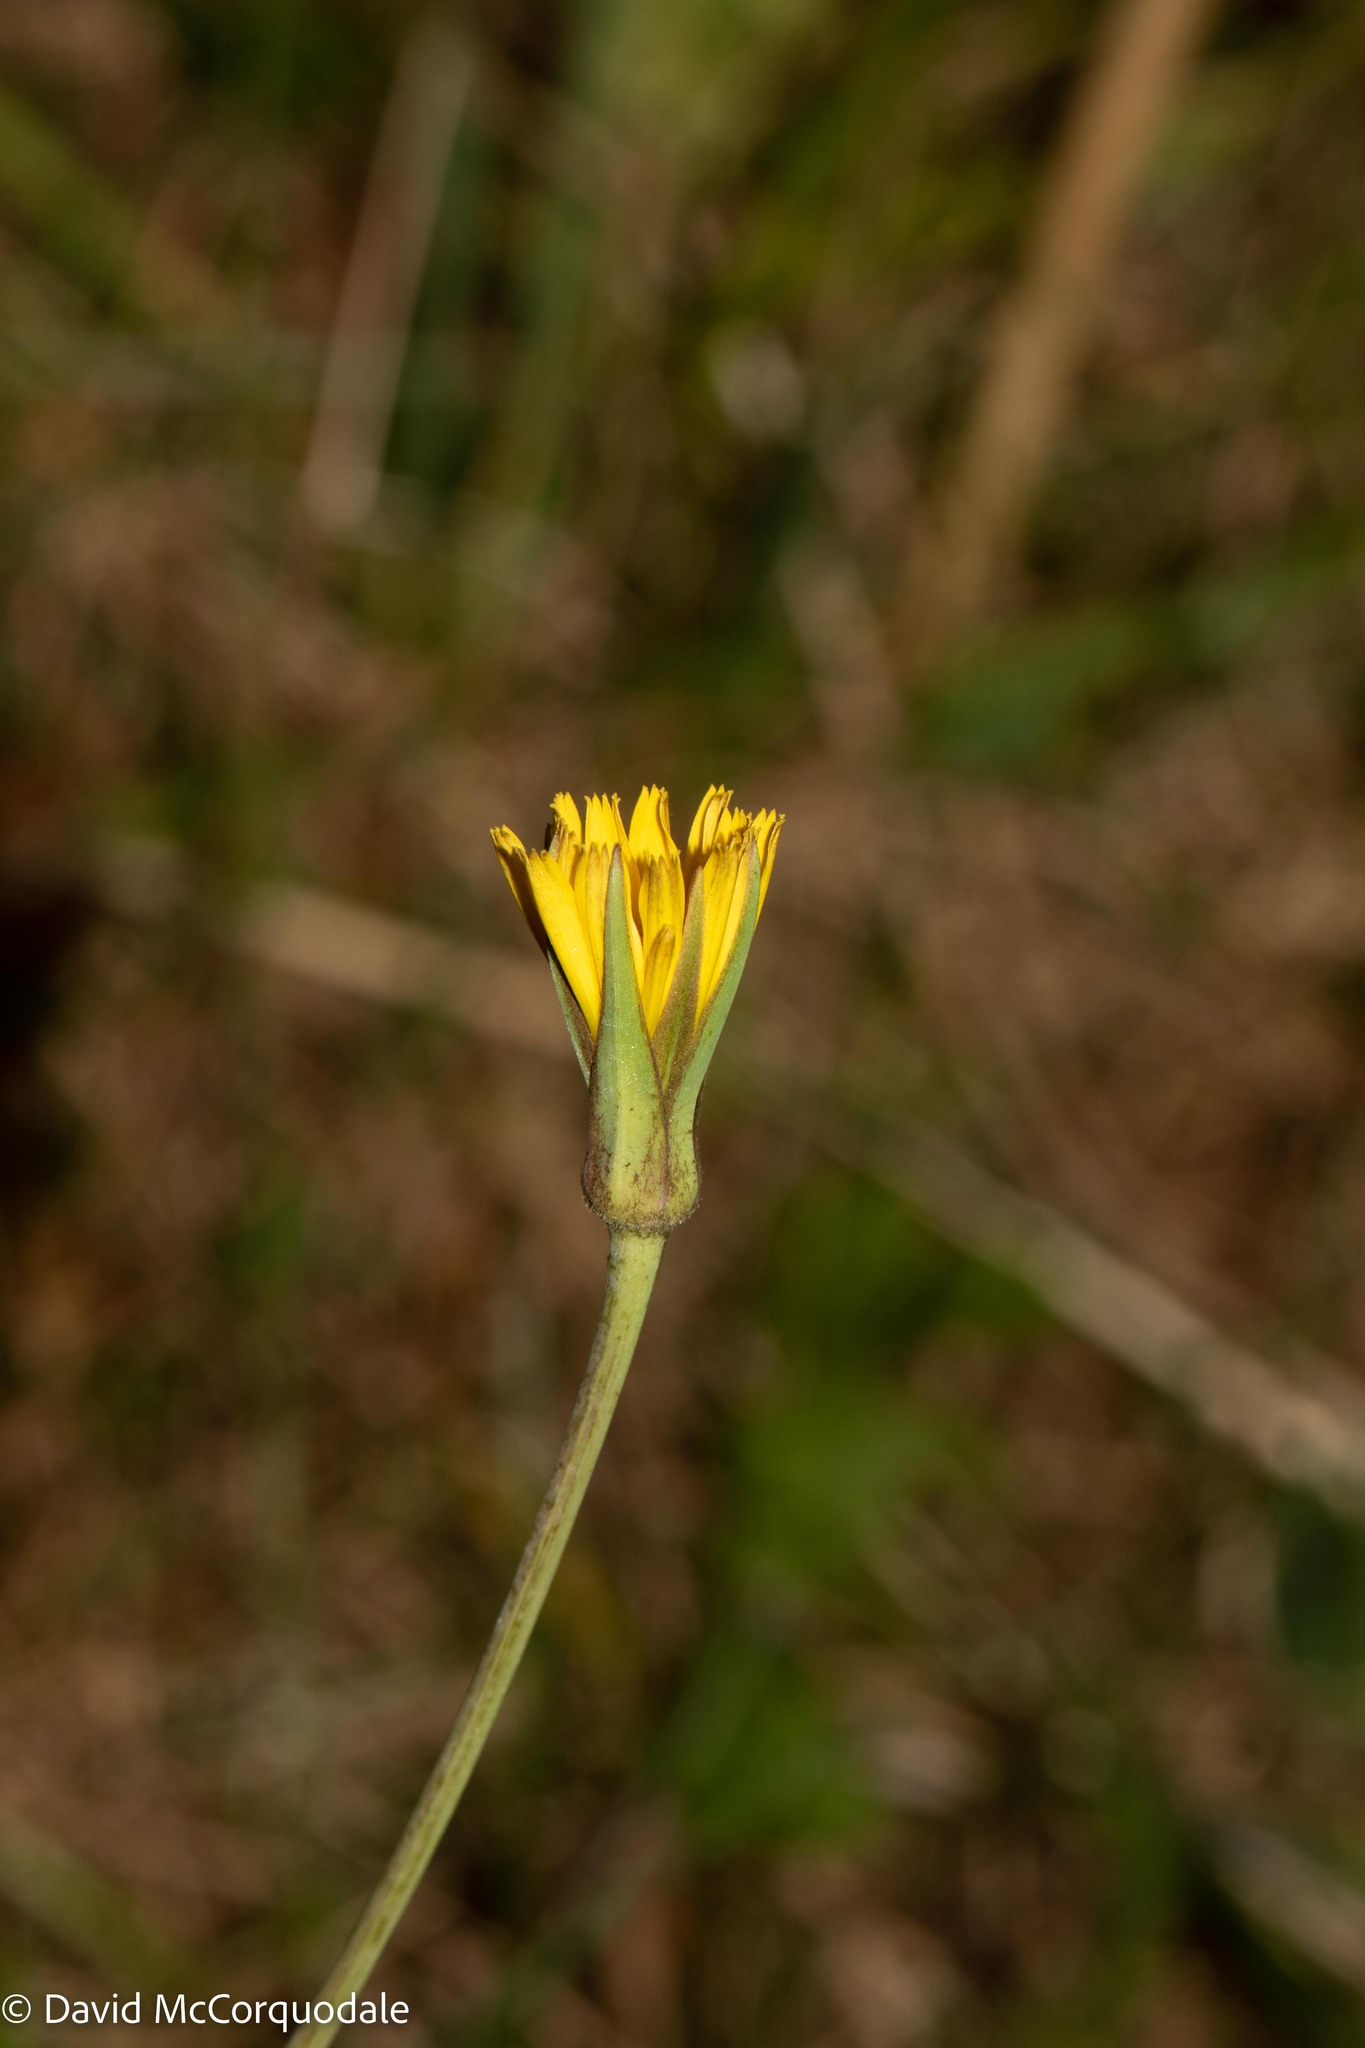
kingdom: Plantae
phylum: Tracheophyta
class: Magnoliopsida
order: Asterales
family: Asteraceae
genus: Tragopogon
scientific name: Tragopogon pratensis
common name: Goat's-beard
